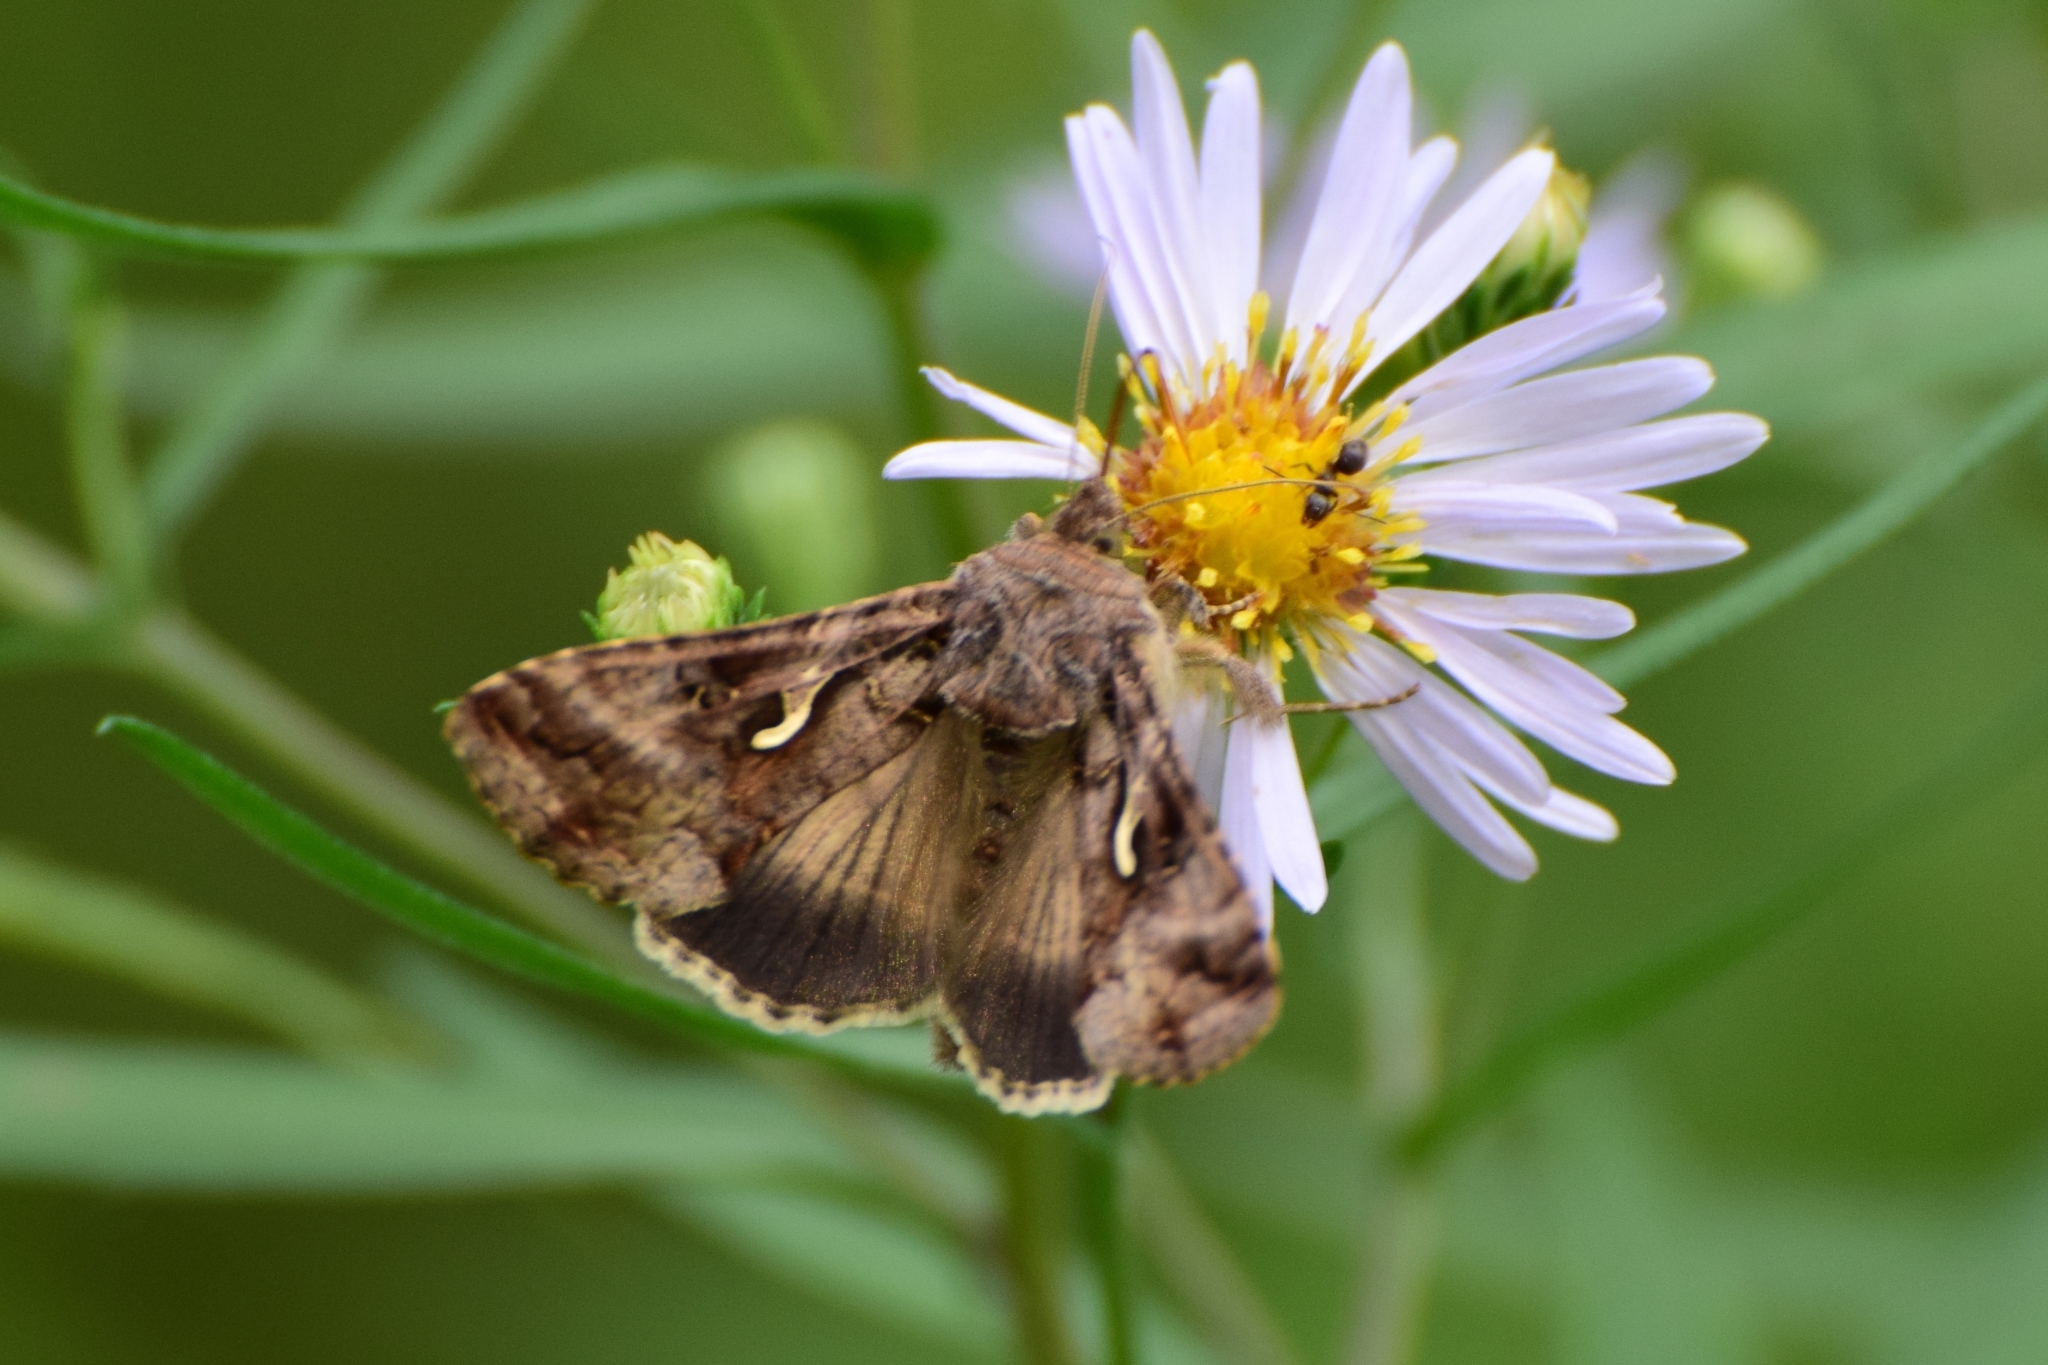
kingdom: Animalia
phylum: Arthropoda
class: Insecta
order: Lepidoptera
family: Noctuidae
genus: Autographa
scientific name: Autographa gamma
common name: Silver y
